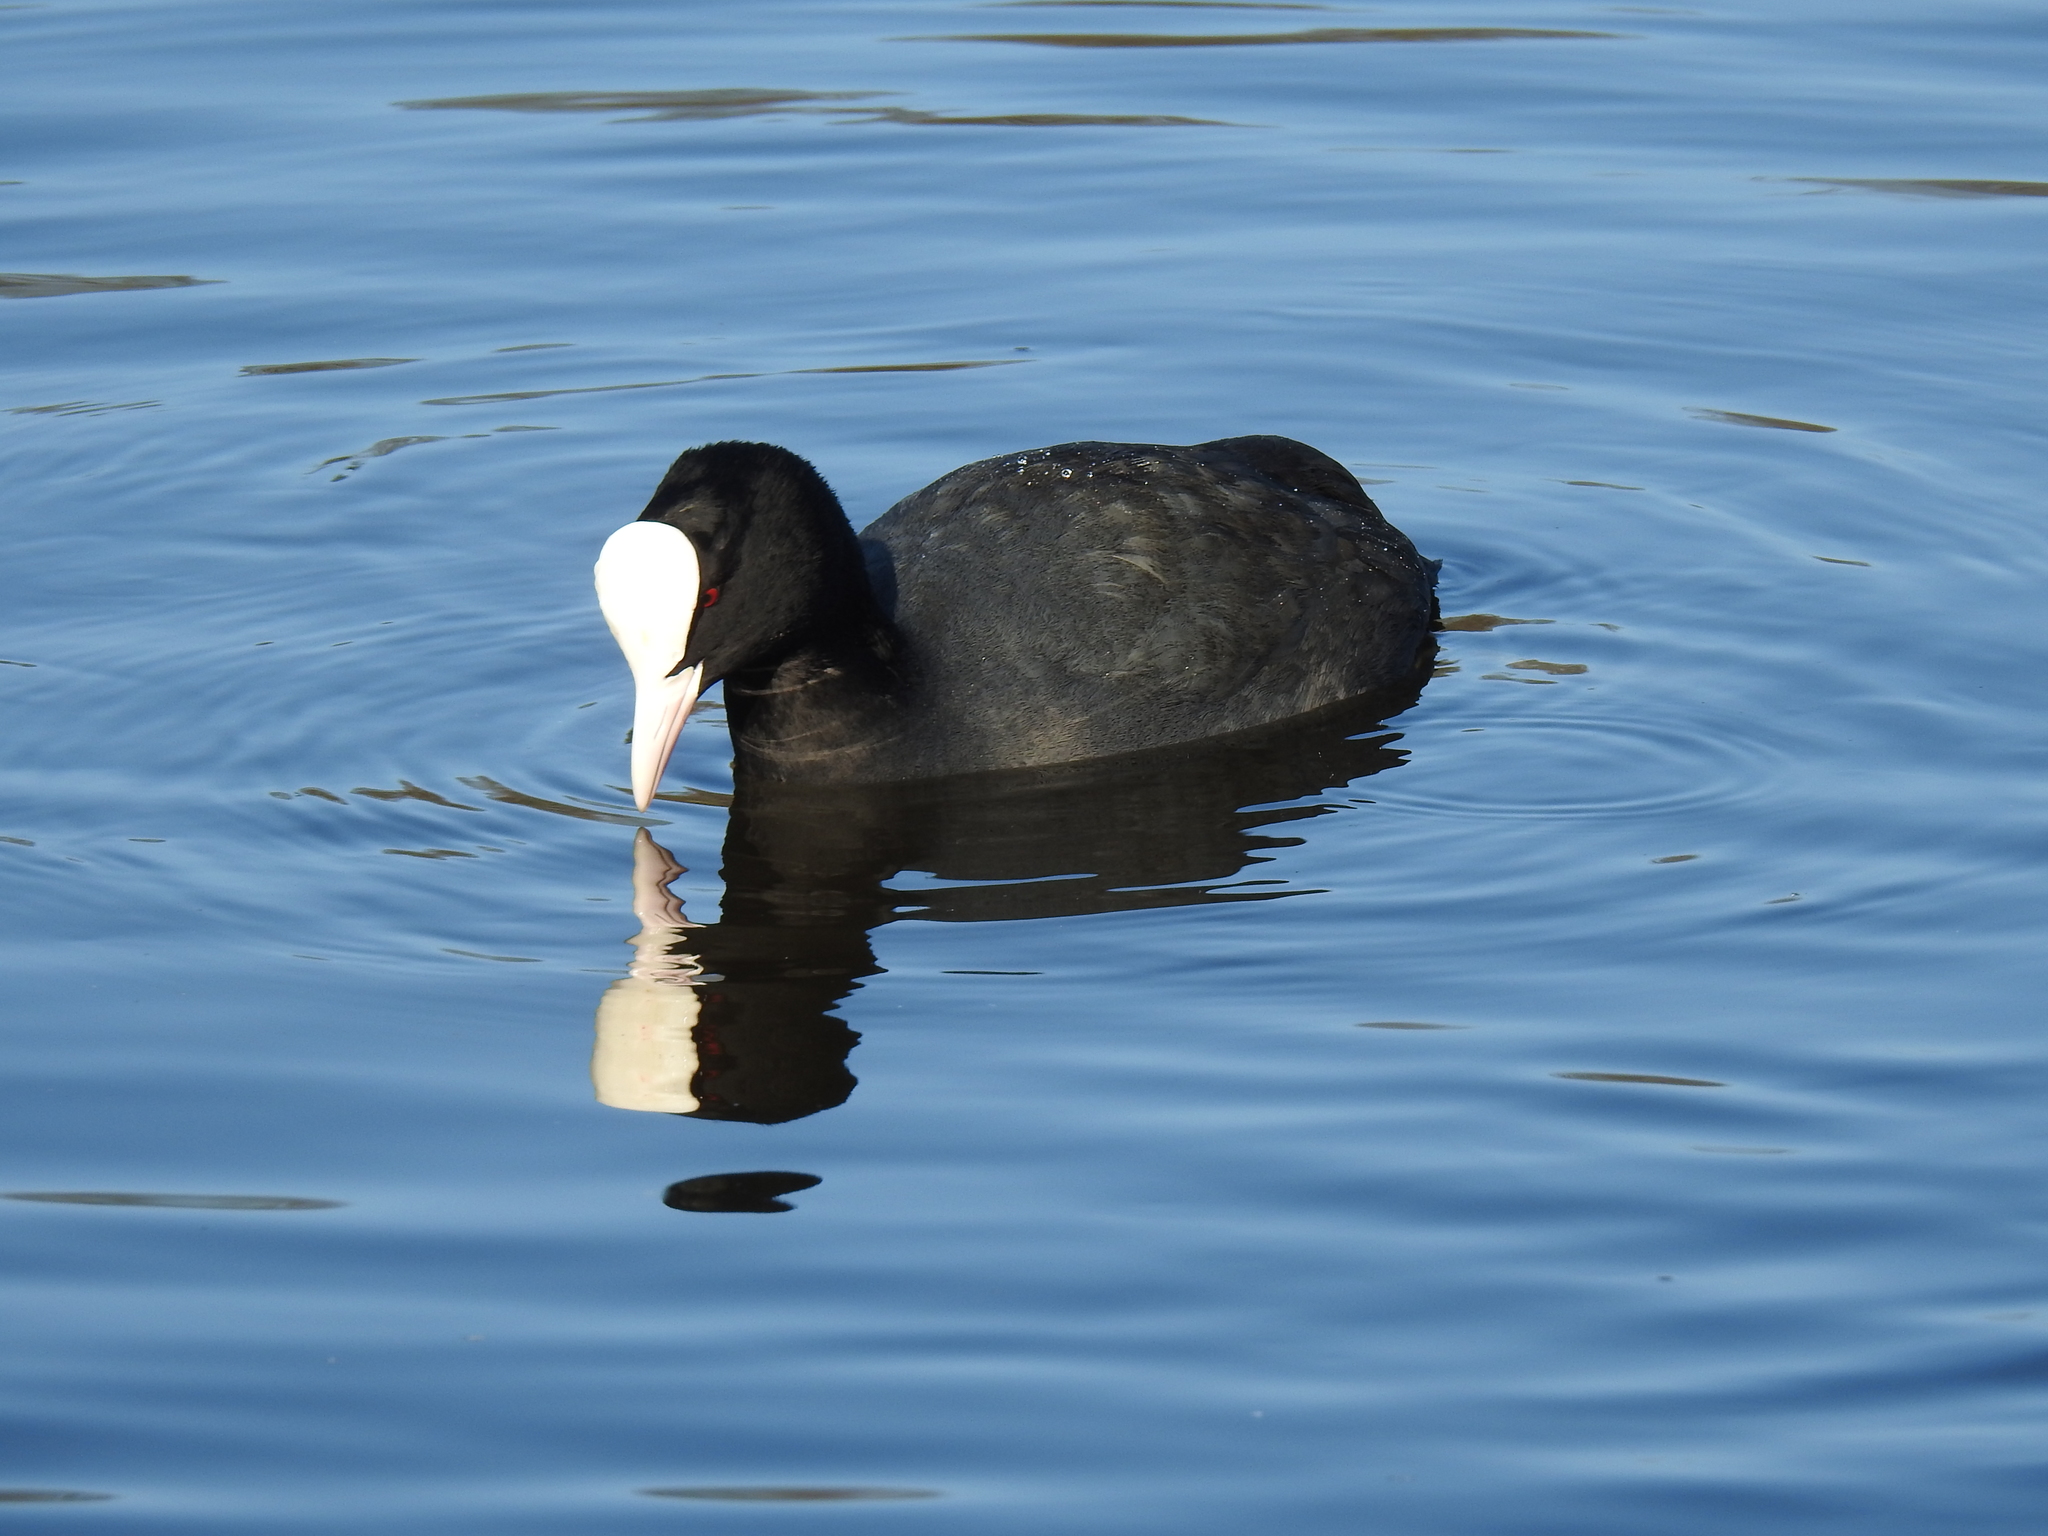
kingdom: Animalia
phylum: Chordata
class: Aves
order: Gruiformes
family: Rallidae
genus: Fulica
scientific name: Fulica atra
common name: Eurasian coot
